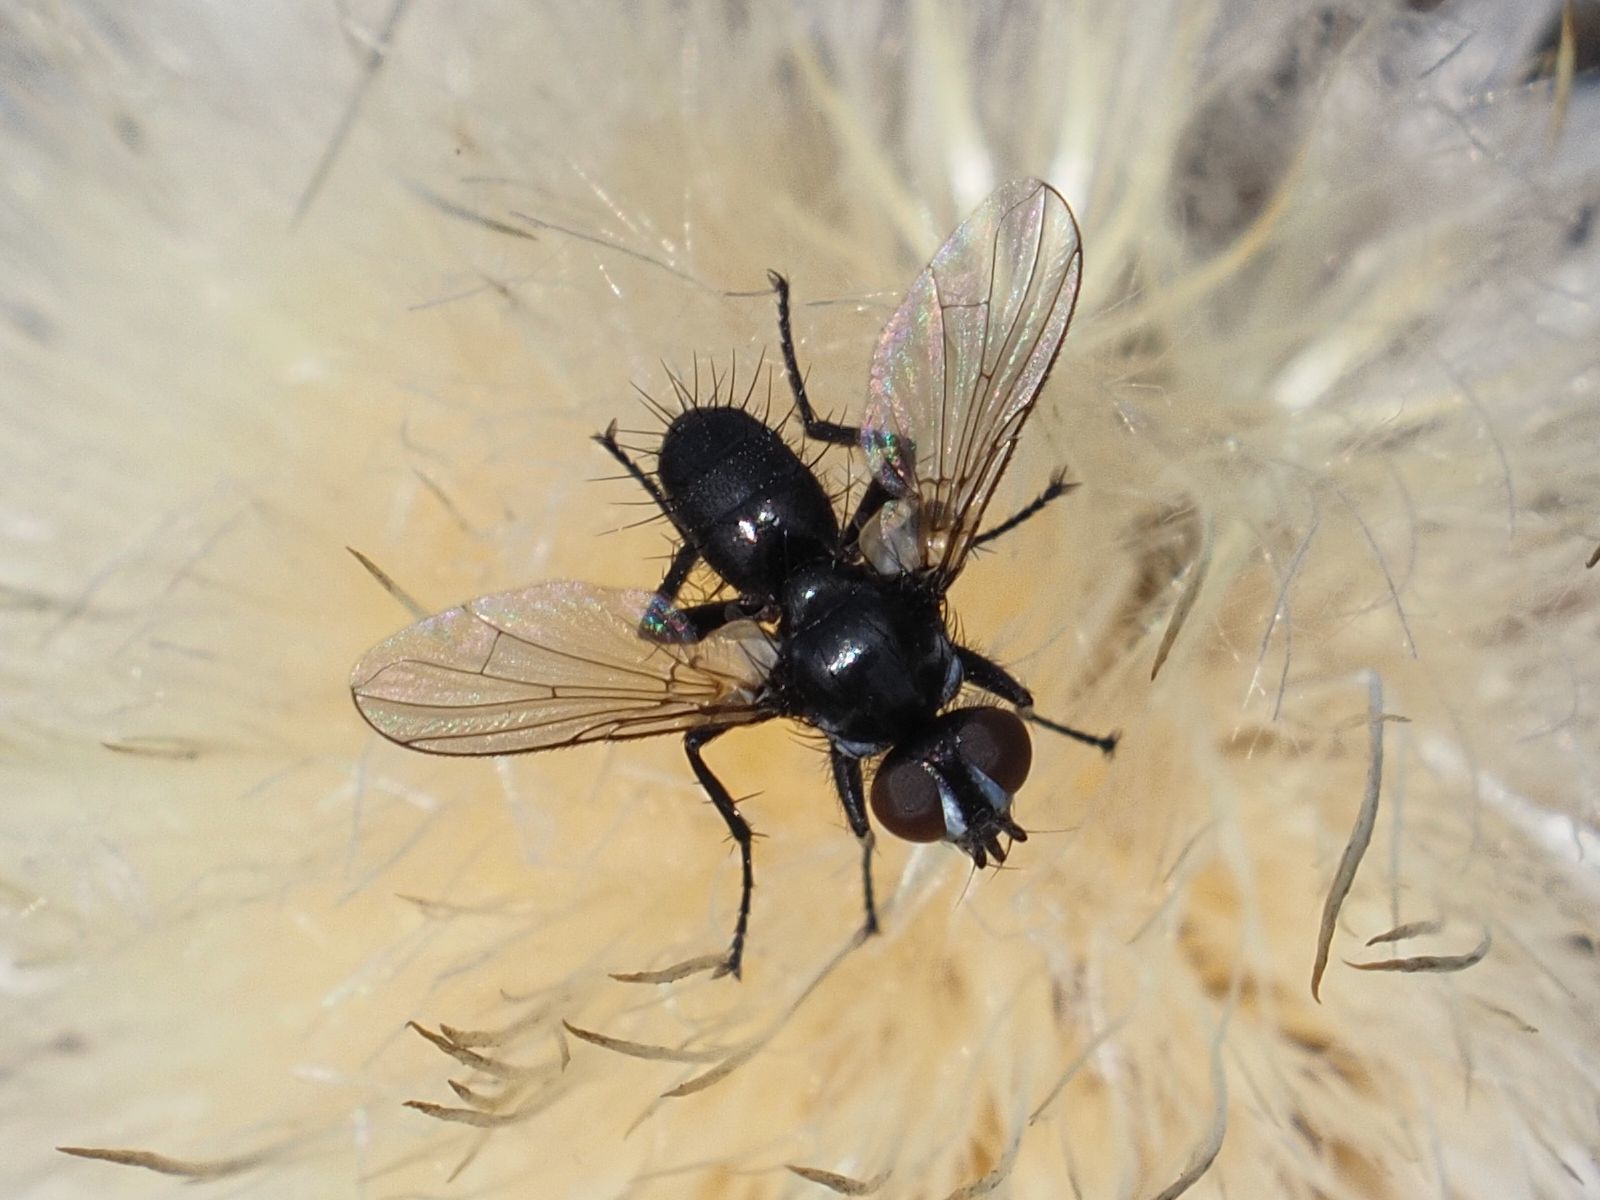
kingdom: Animalia
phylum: Arthropoda
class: Insecta
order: Diptera
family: Tachinidae
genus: Phania
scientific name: Phania funesta
